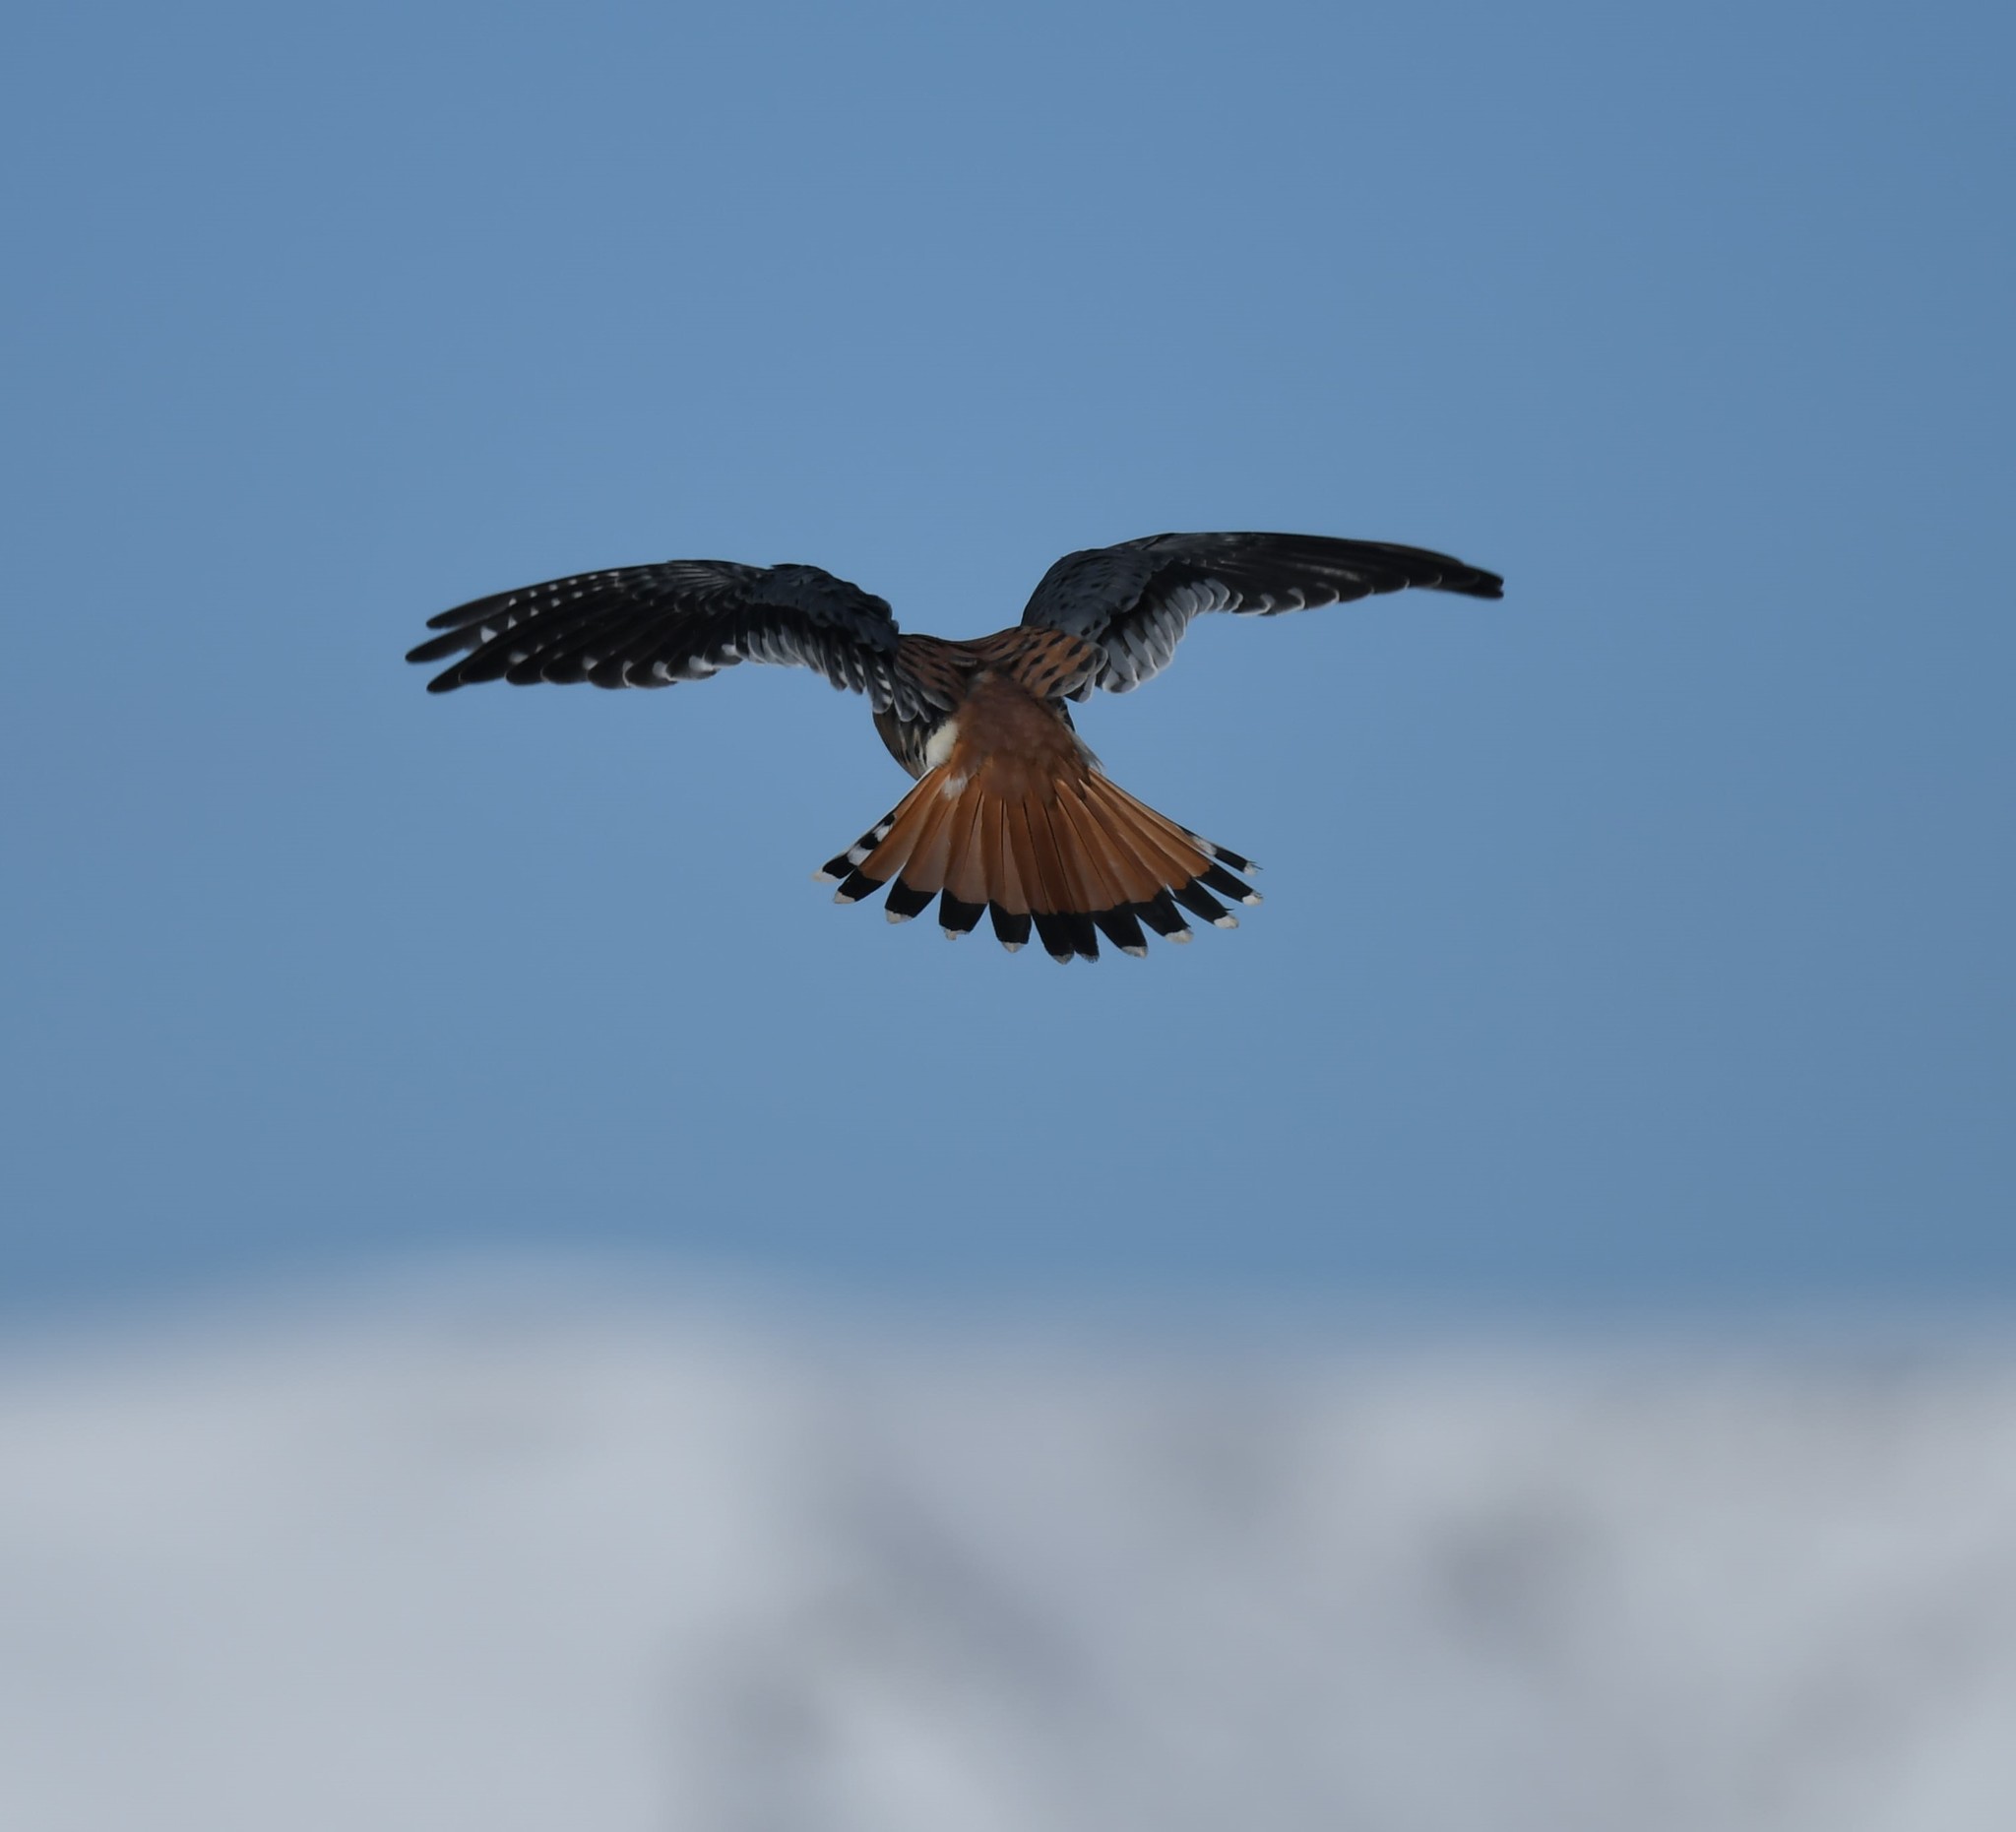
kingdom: Animalia
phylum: Chordata
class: Aves
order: Falconiformes
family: Falconidae
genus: Falco
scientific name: Falco sparverius
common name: American kestrel
